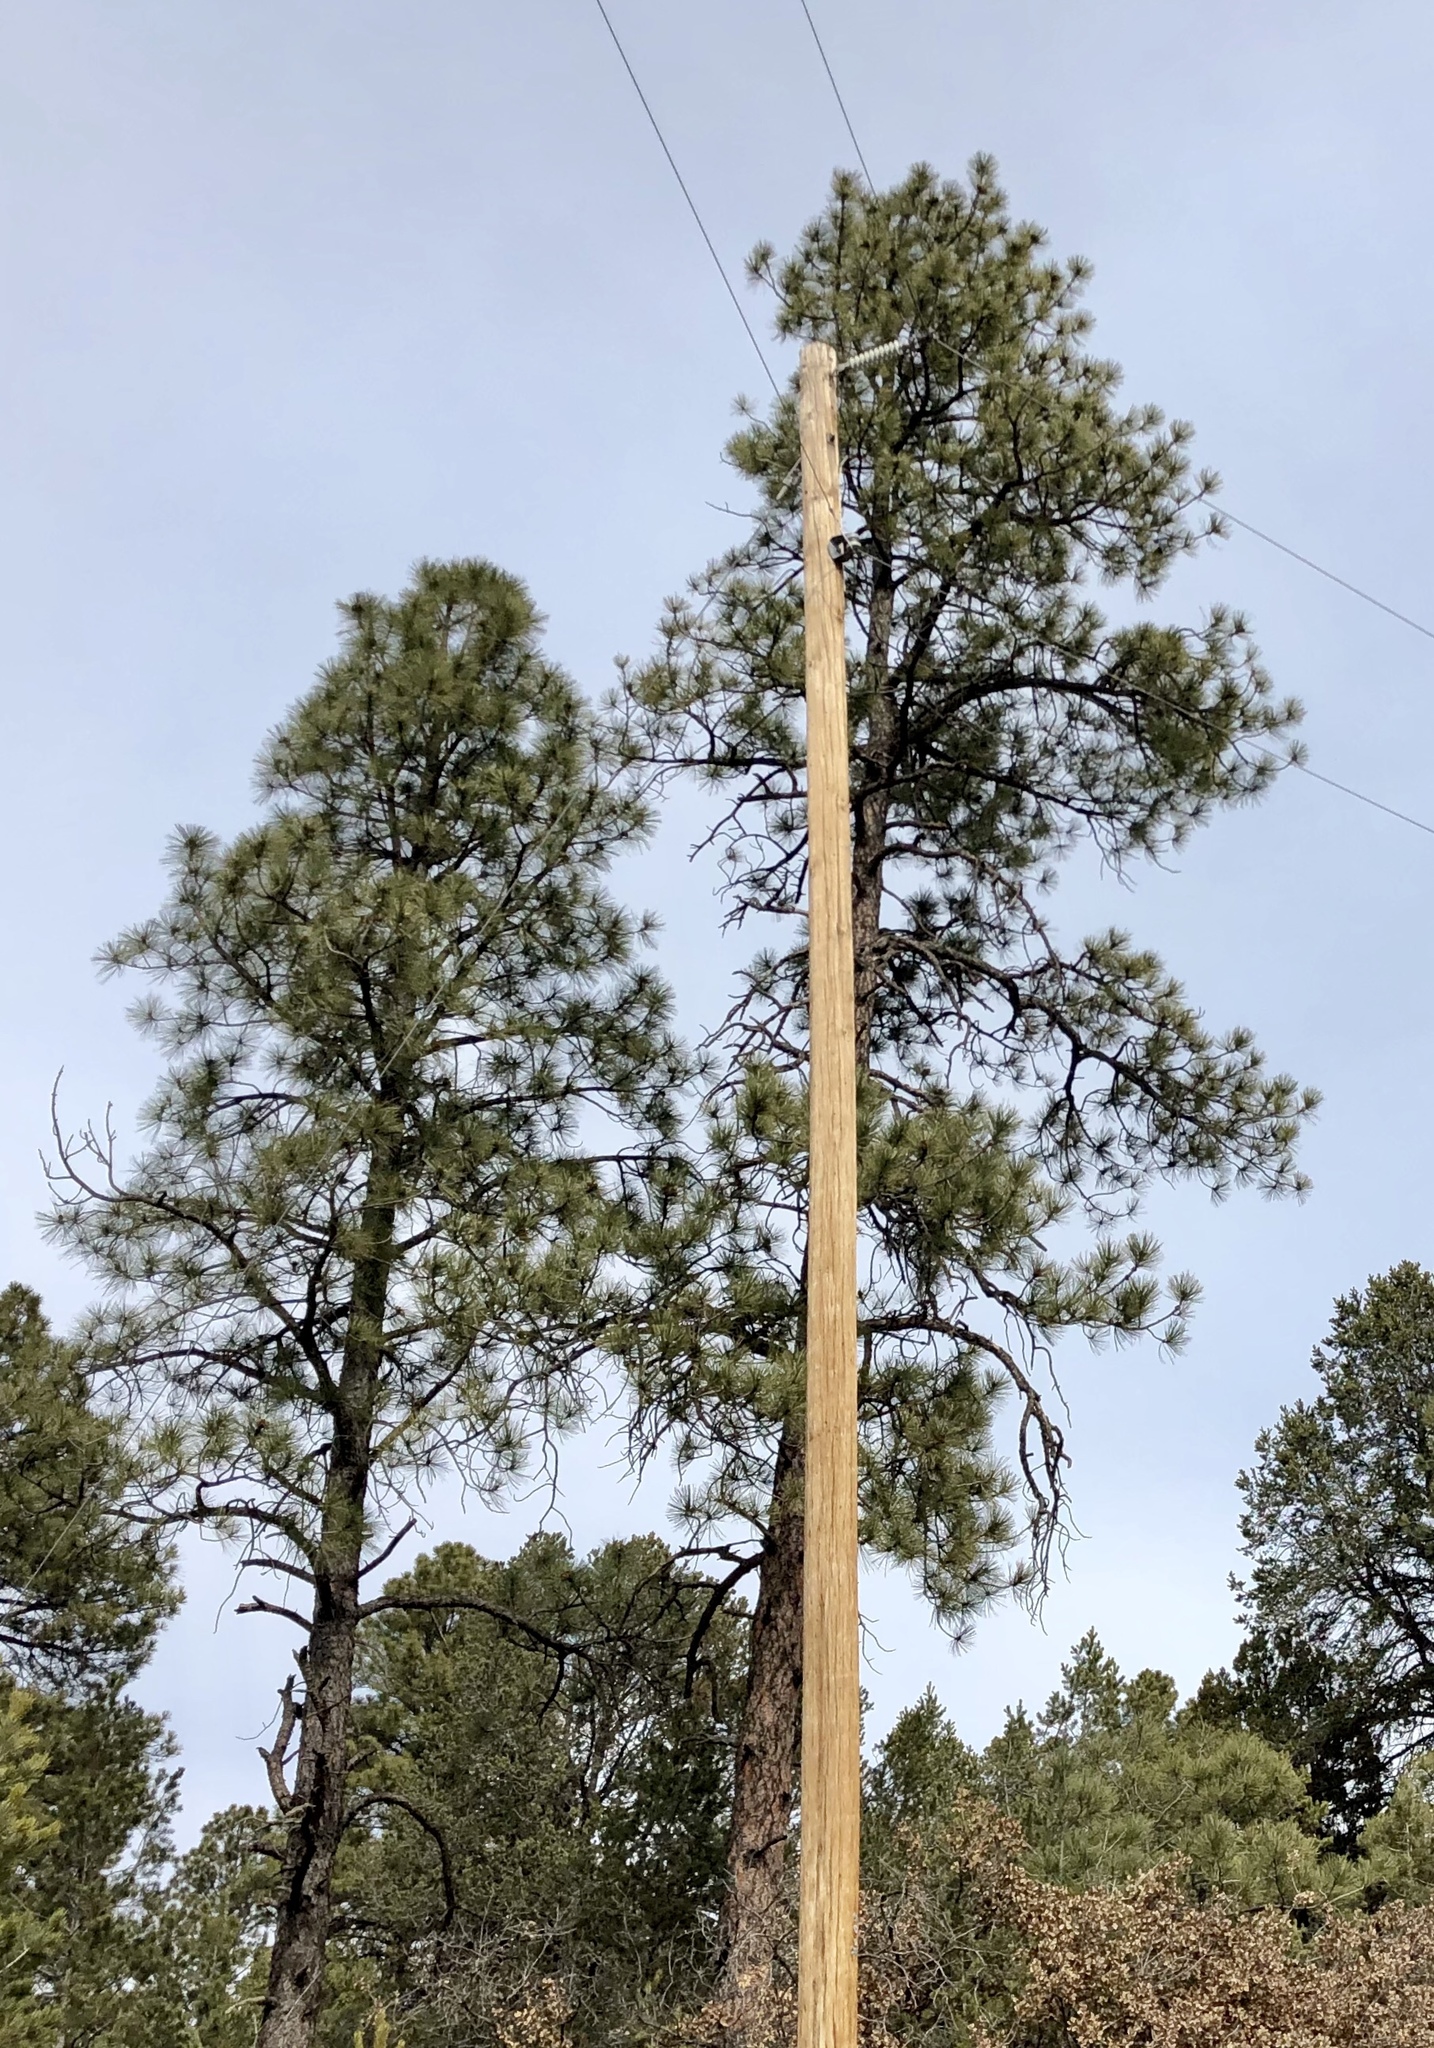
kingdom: Plantae
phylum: Tracheophyta
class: Pinopsida
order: Pinales
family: Pinaceae
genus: Pinus
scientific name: Pinus ponderosa
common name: Western yellow-pine
